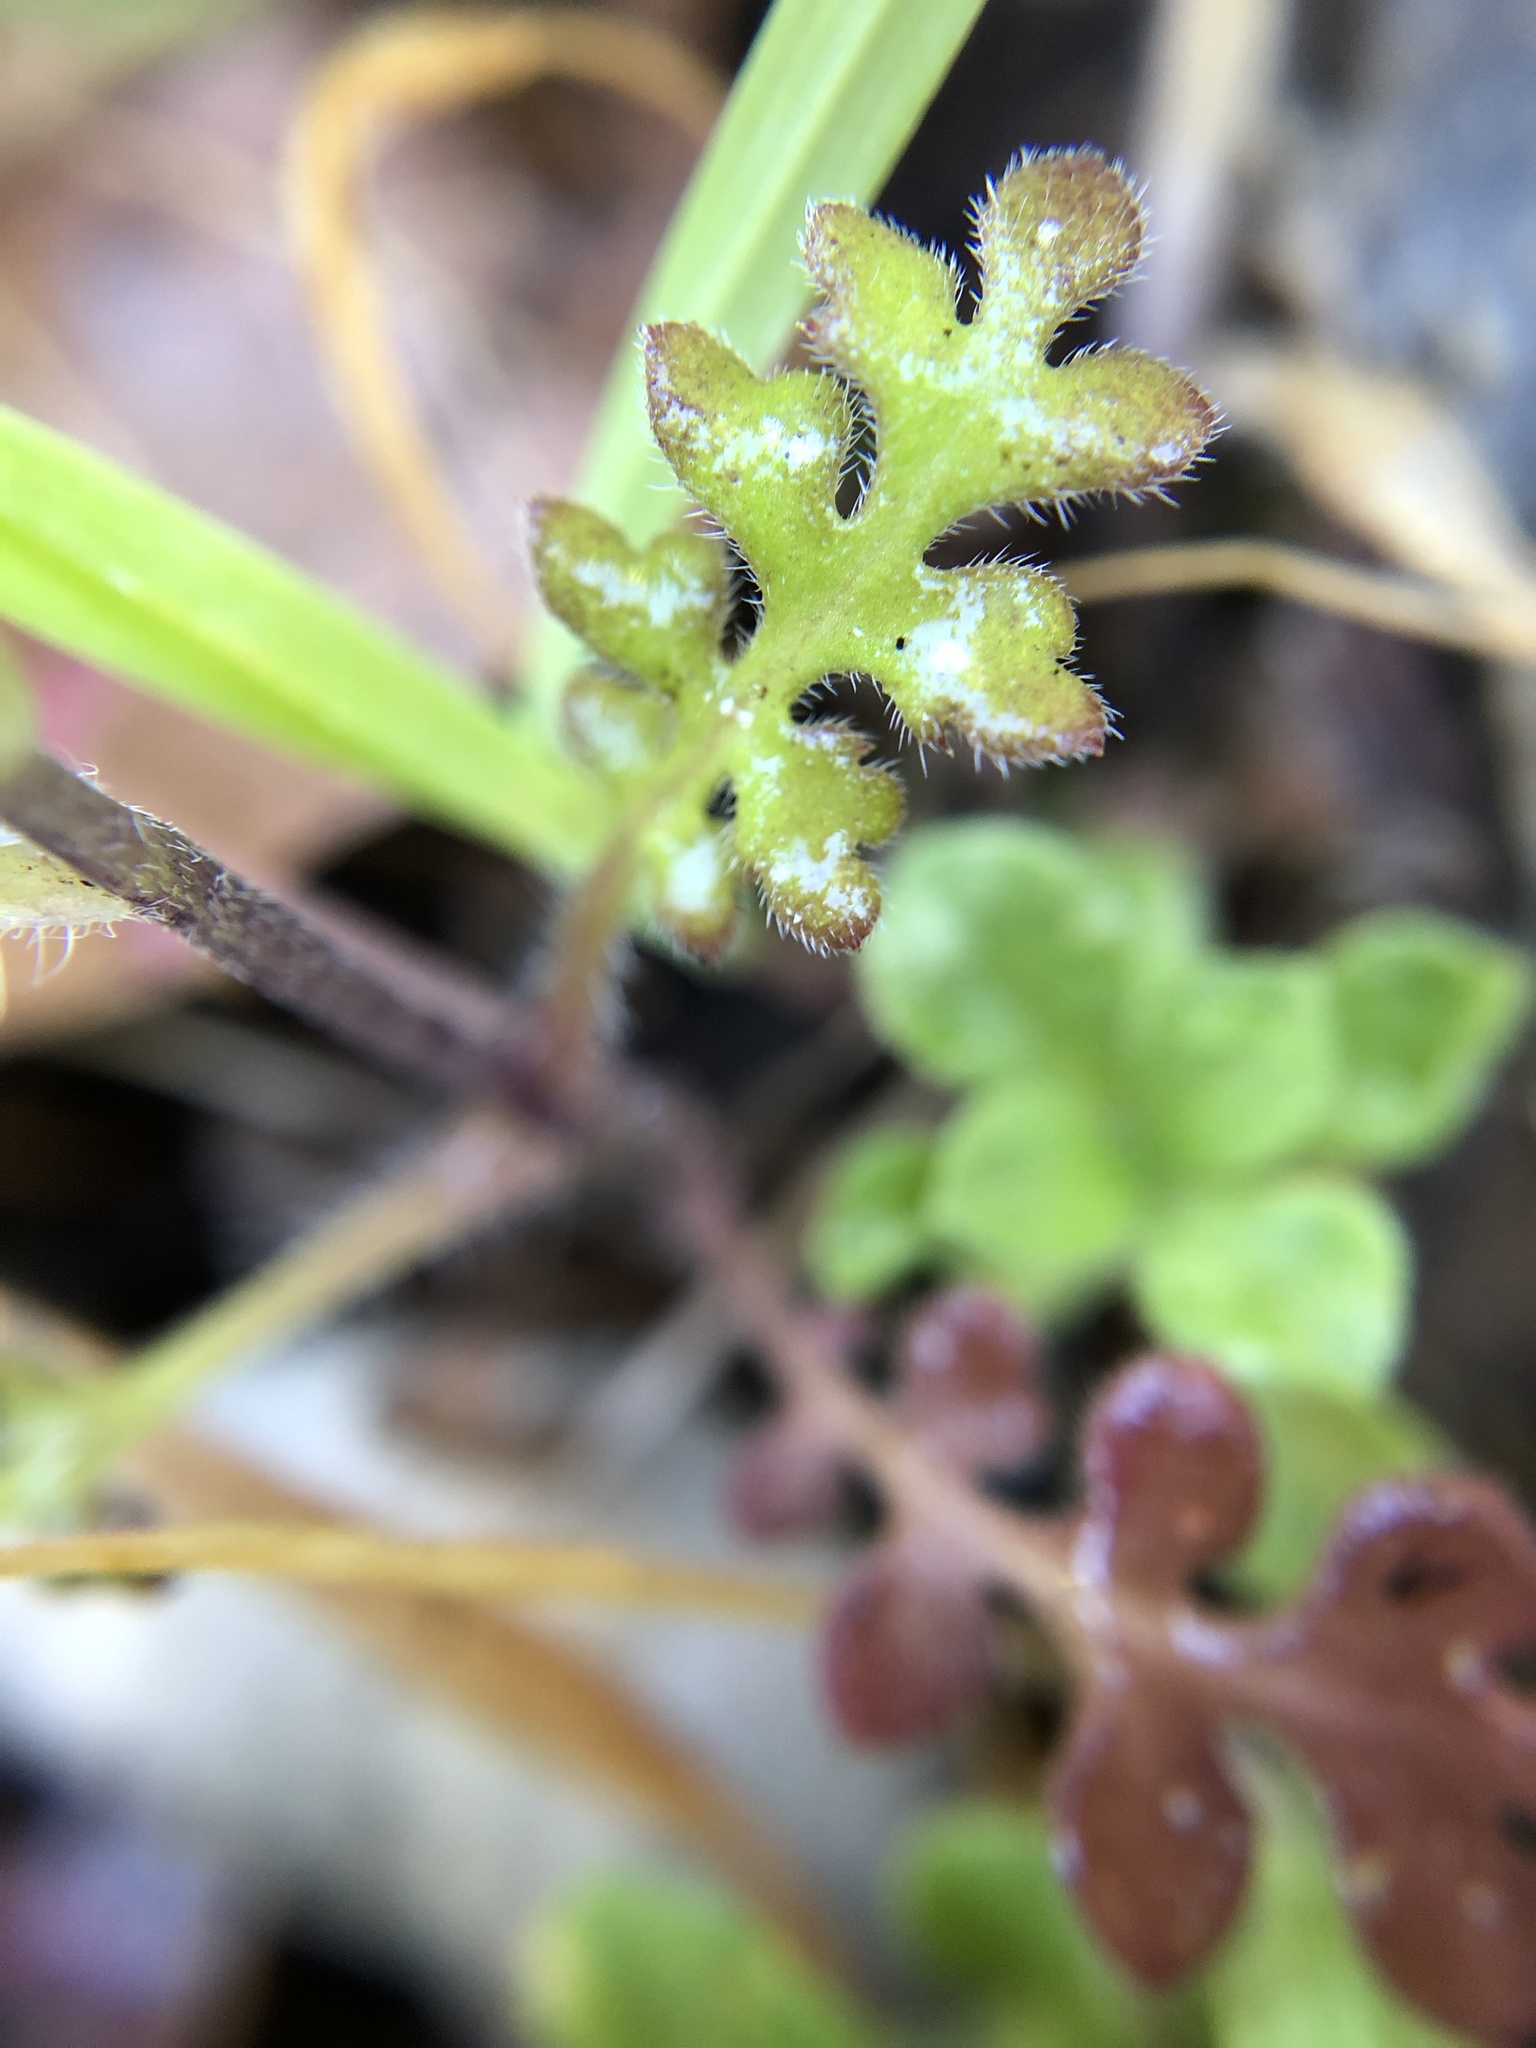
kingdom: Plantae
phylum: Tracheophyta
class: Magnoliopsida
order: Boraginales
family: Hydrophyllaceae
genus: Nemophila
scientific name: Nemophila menziesii
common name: Baby's-blue-eyes
